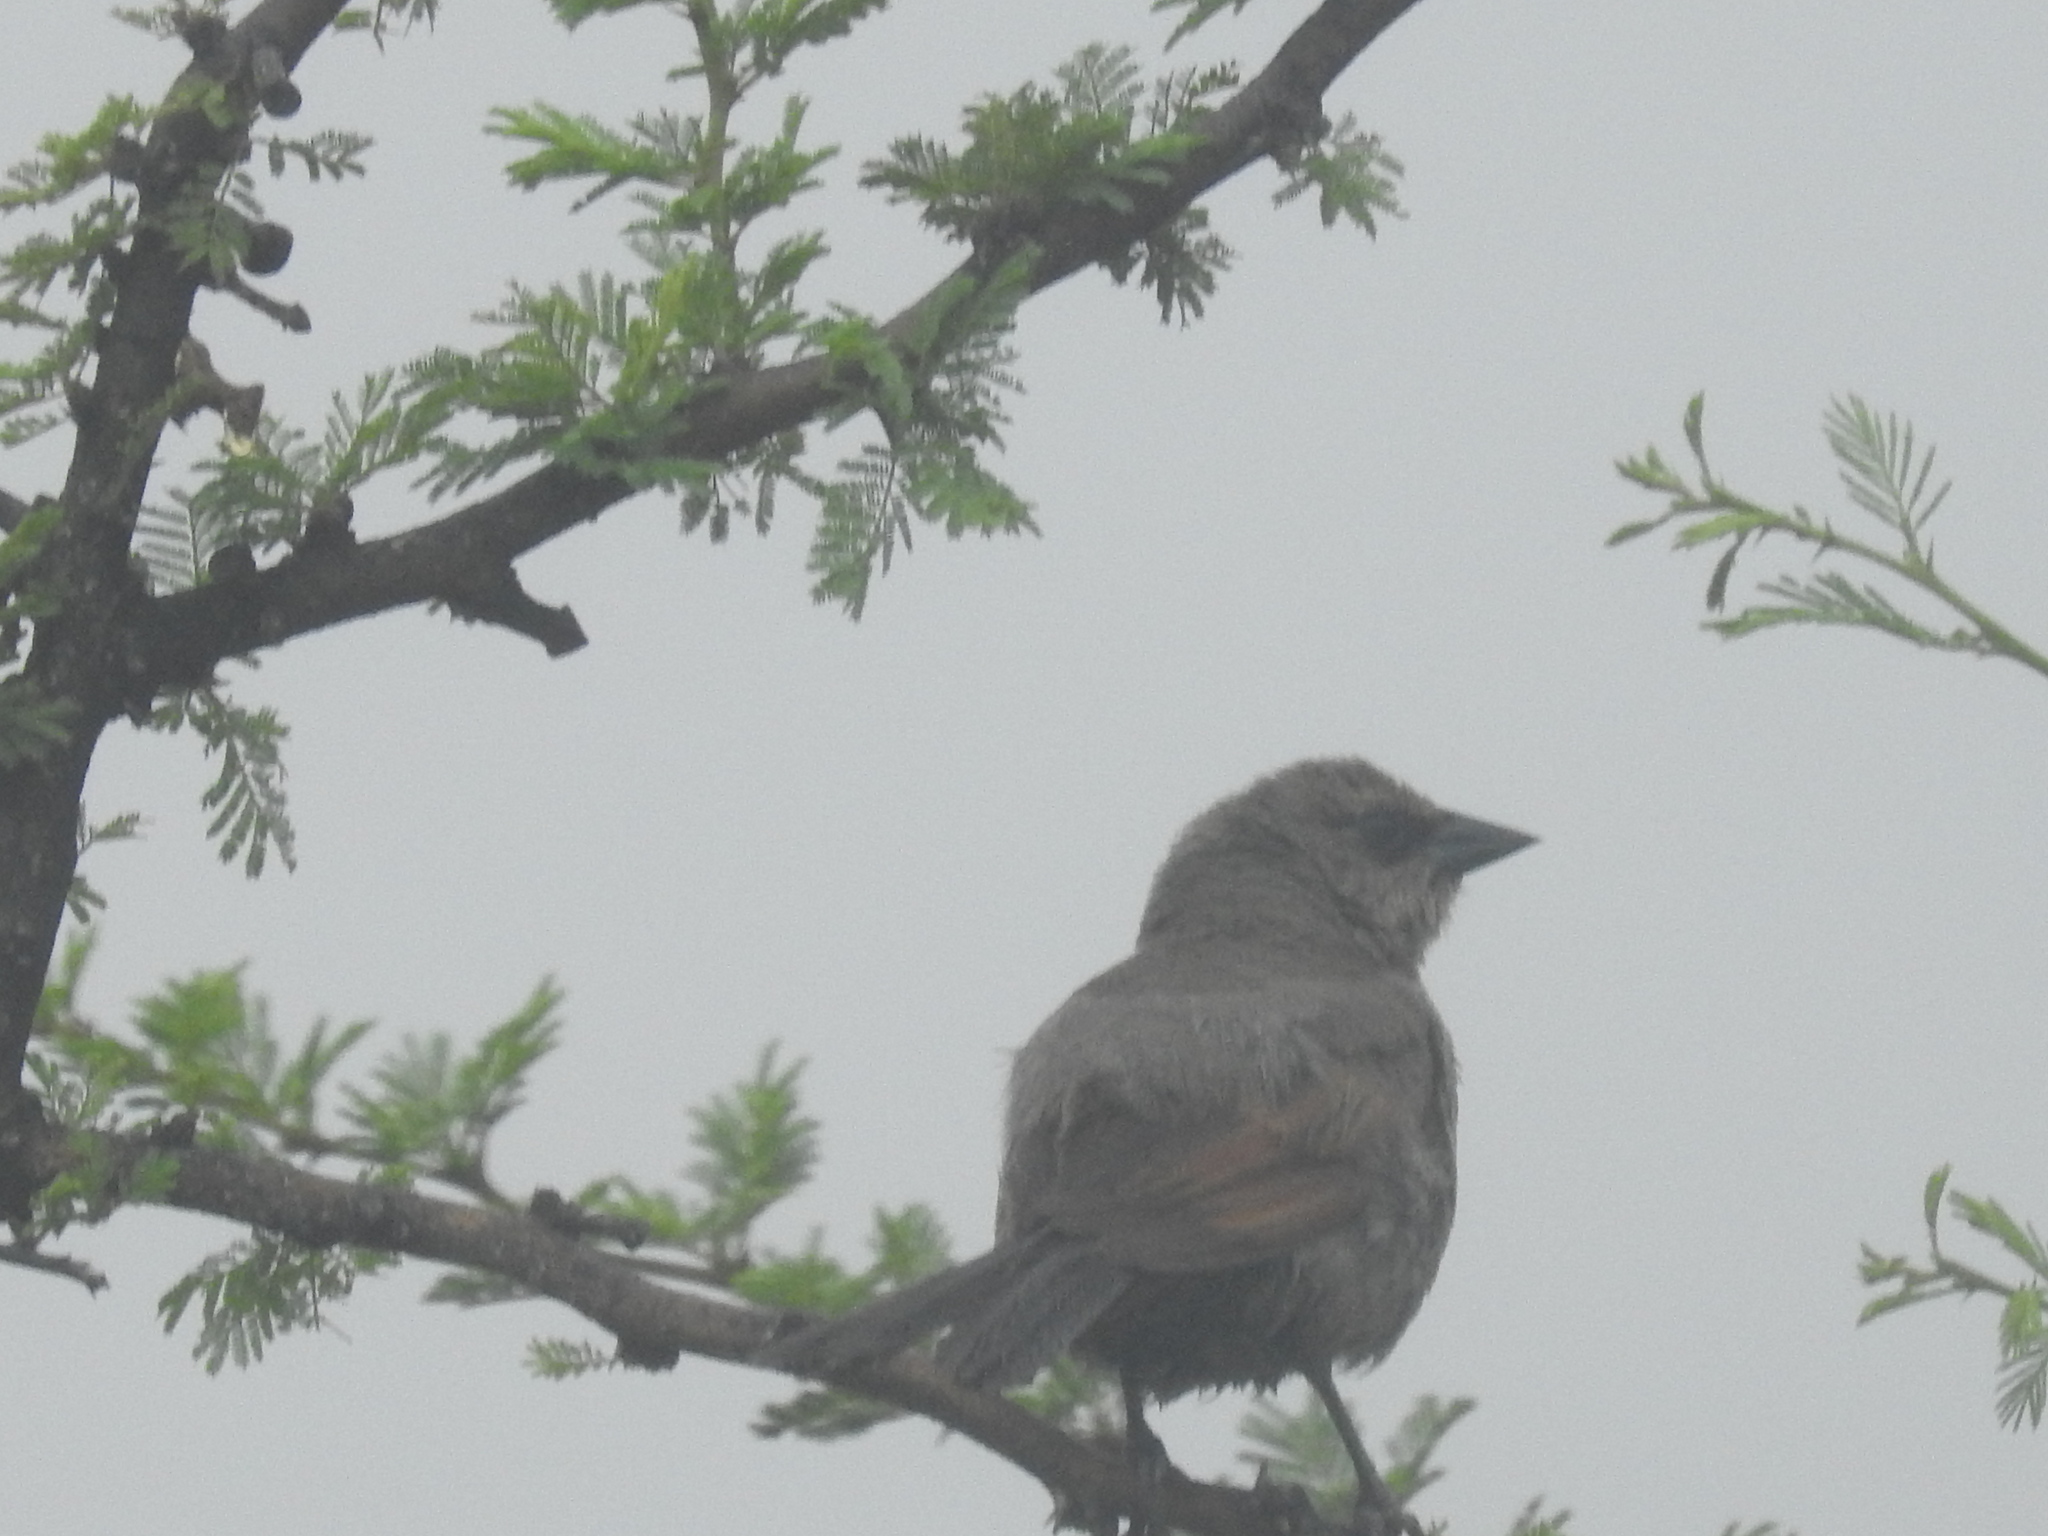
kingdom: Animalia
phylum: Chordata
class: Aves
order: Passeriformes
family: Icteridae
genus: Agelaioides
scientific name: Agelaioides badius
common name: Baywing
